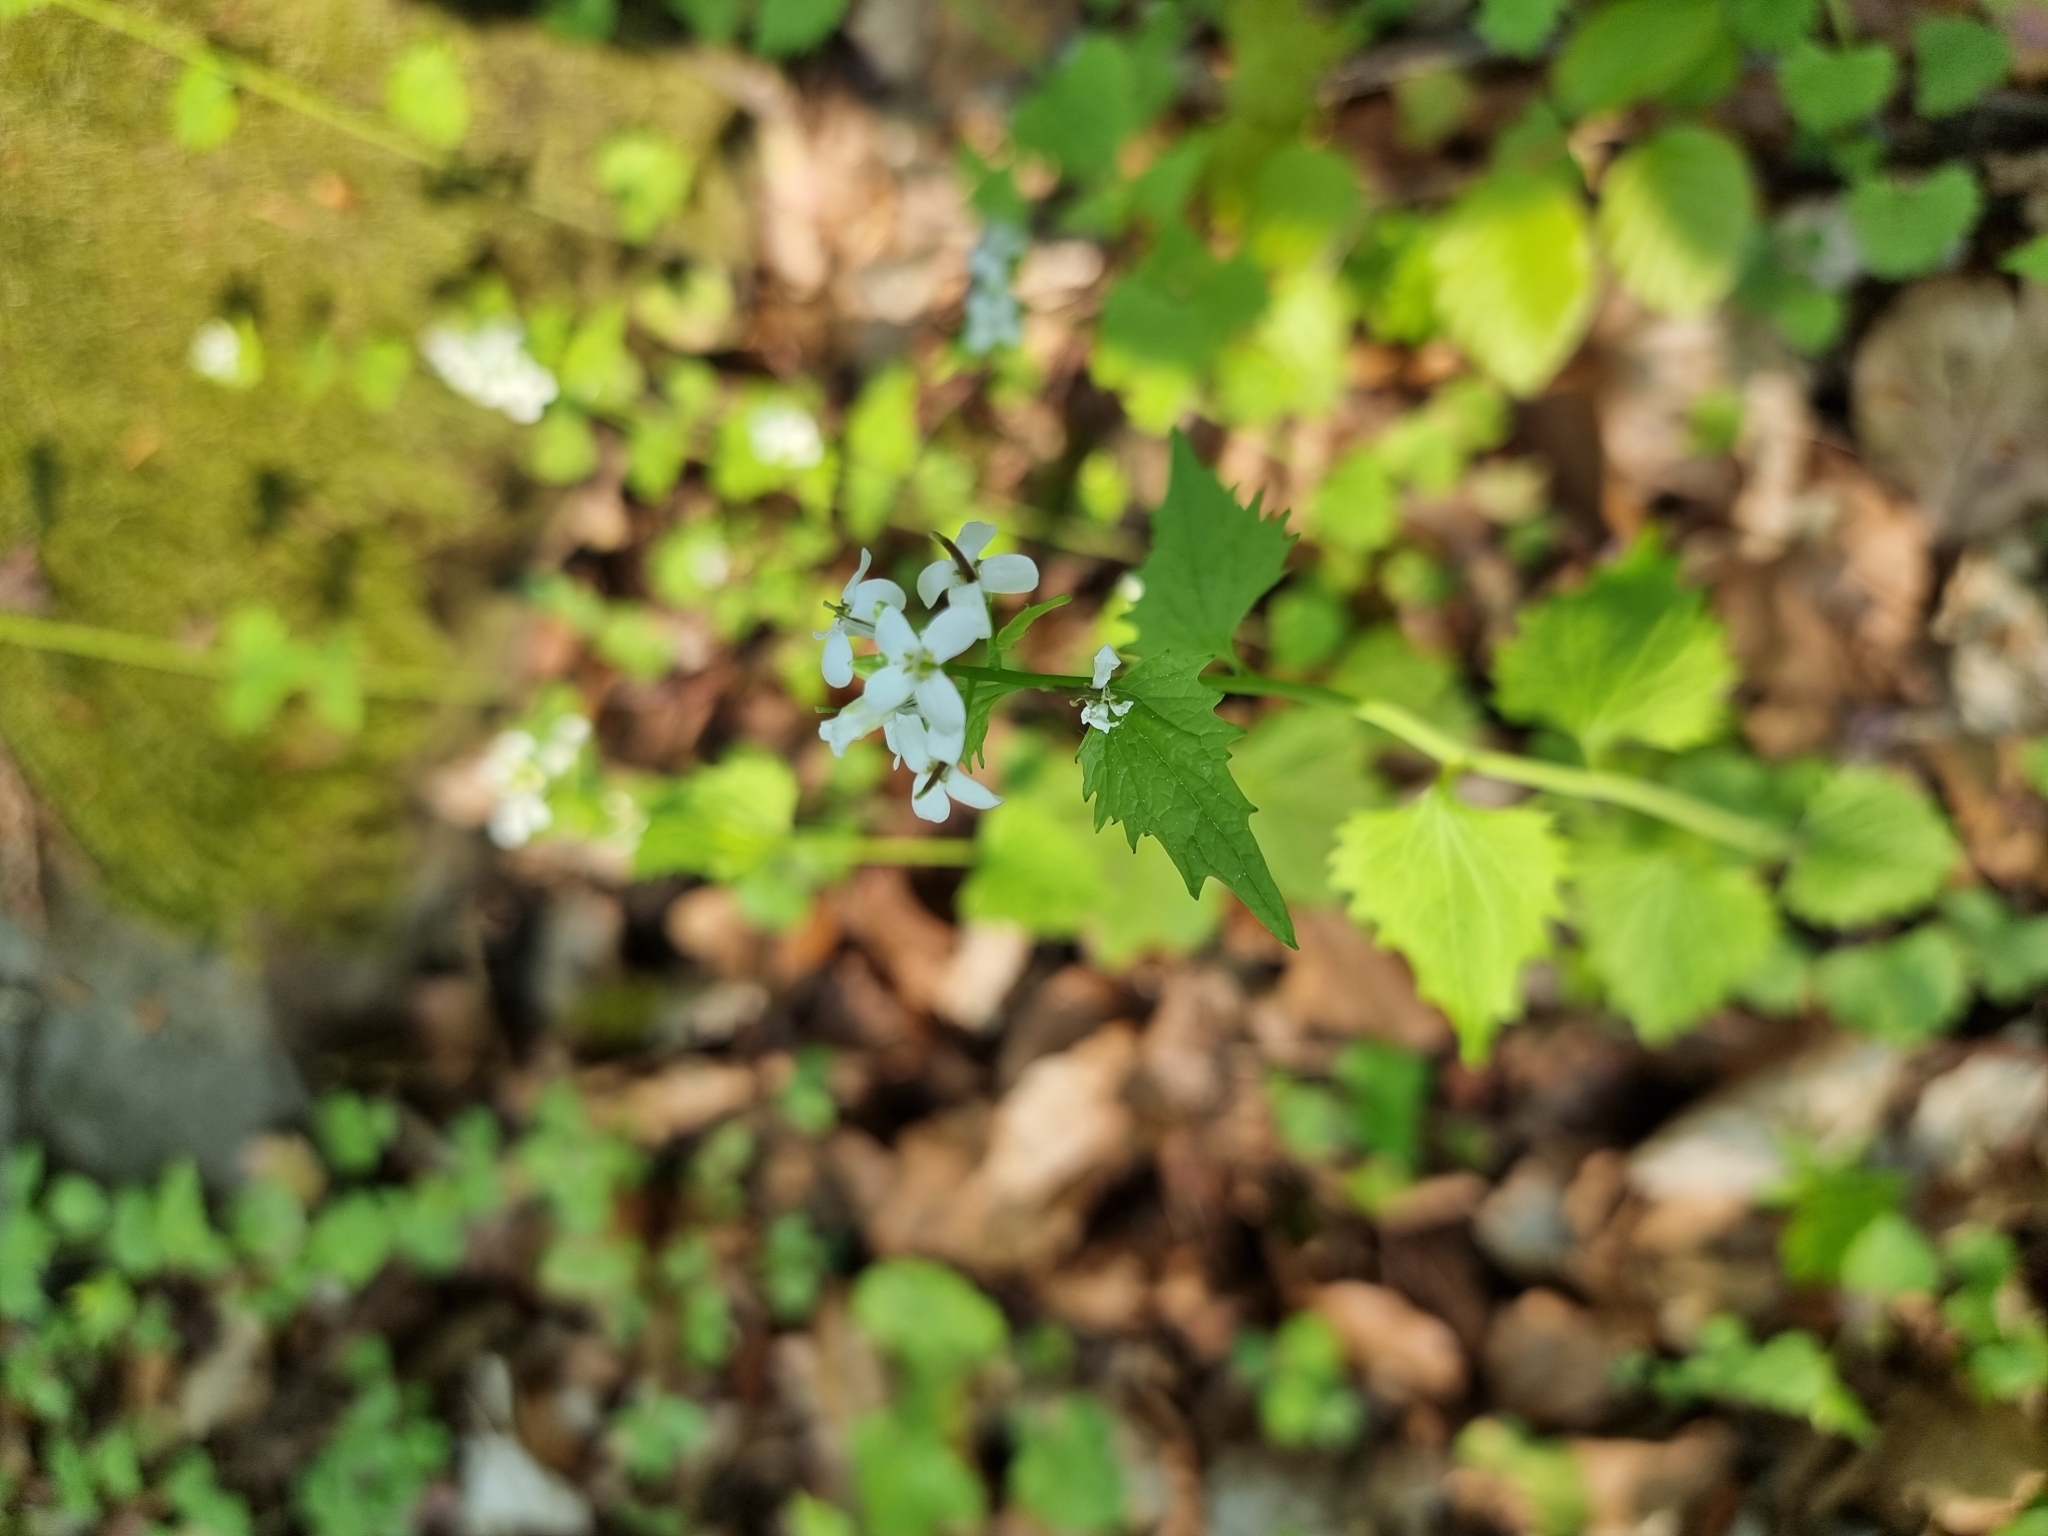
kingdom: Plantae
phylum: Tracheophyta
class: Magnoliopsida
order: Brassicales
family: Brassicaceae
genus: Alliaria
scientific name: Alliaria petiolata
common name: Garlic mustard
